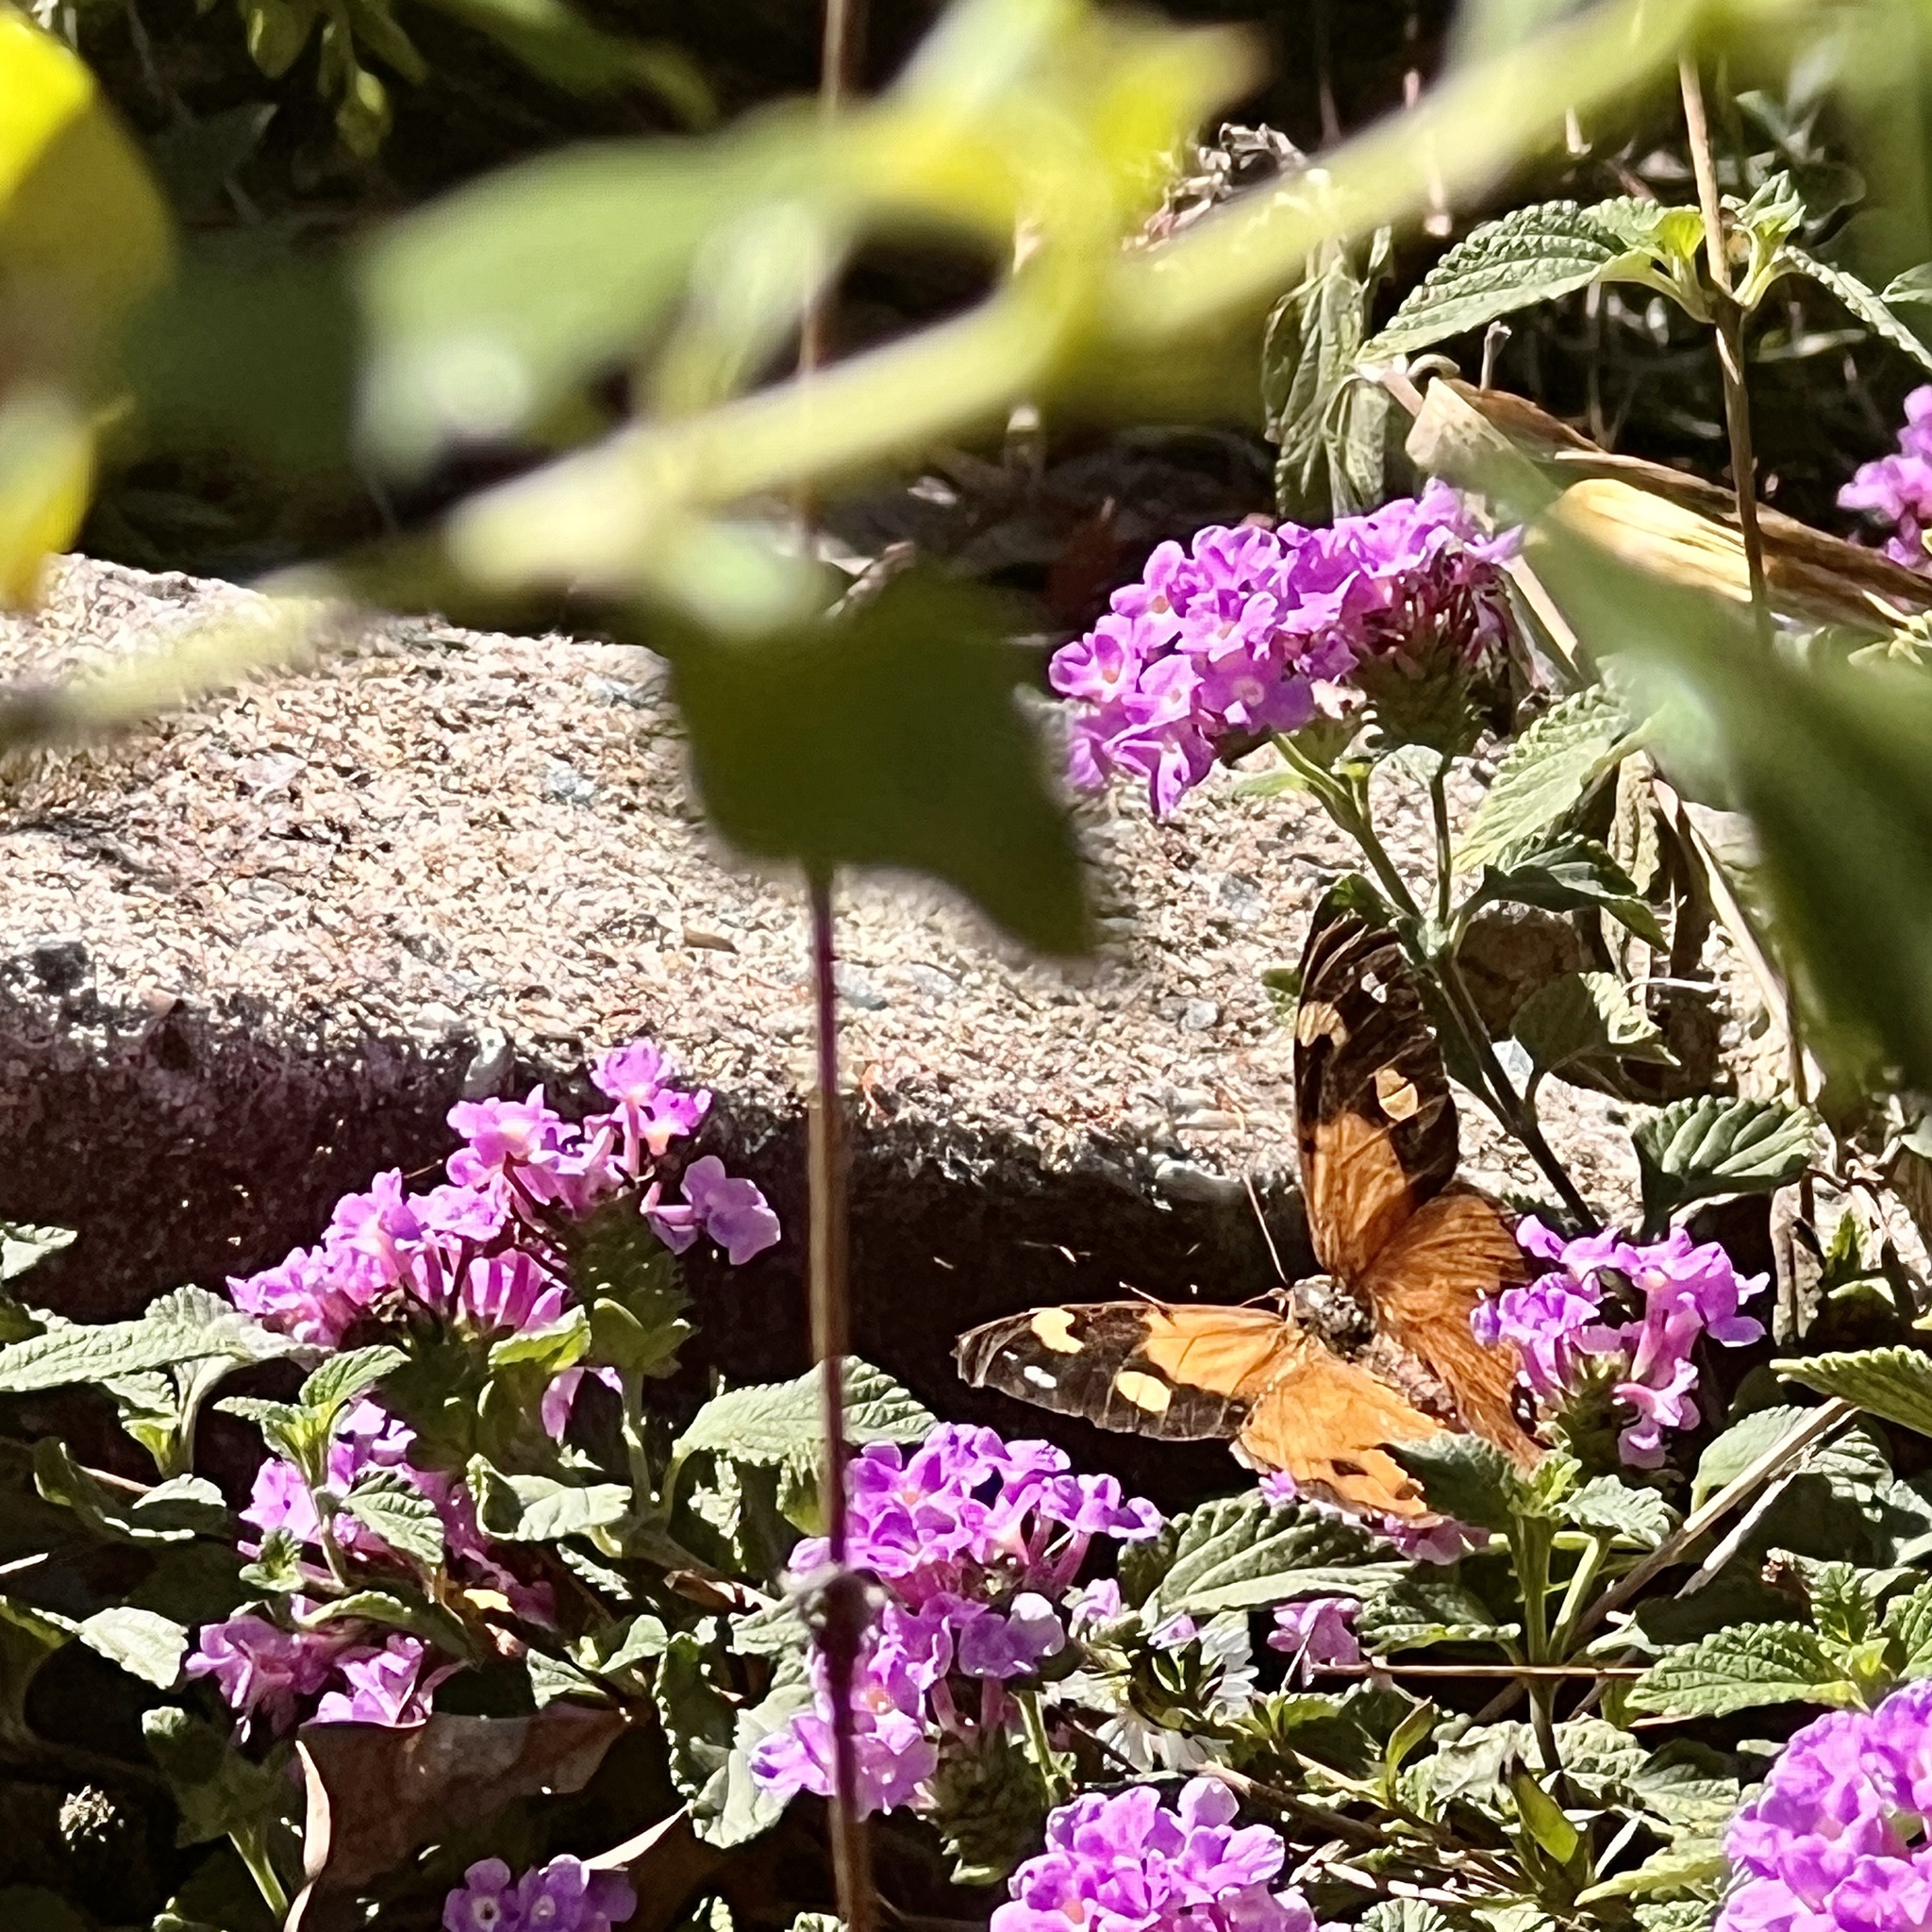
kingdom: Animalia
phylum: Arthropoda
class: Insecta
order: Lepidoptera
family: Nymphalidae
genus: Heteronympha
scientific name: Heteronympha merope
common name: Common brown
